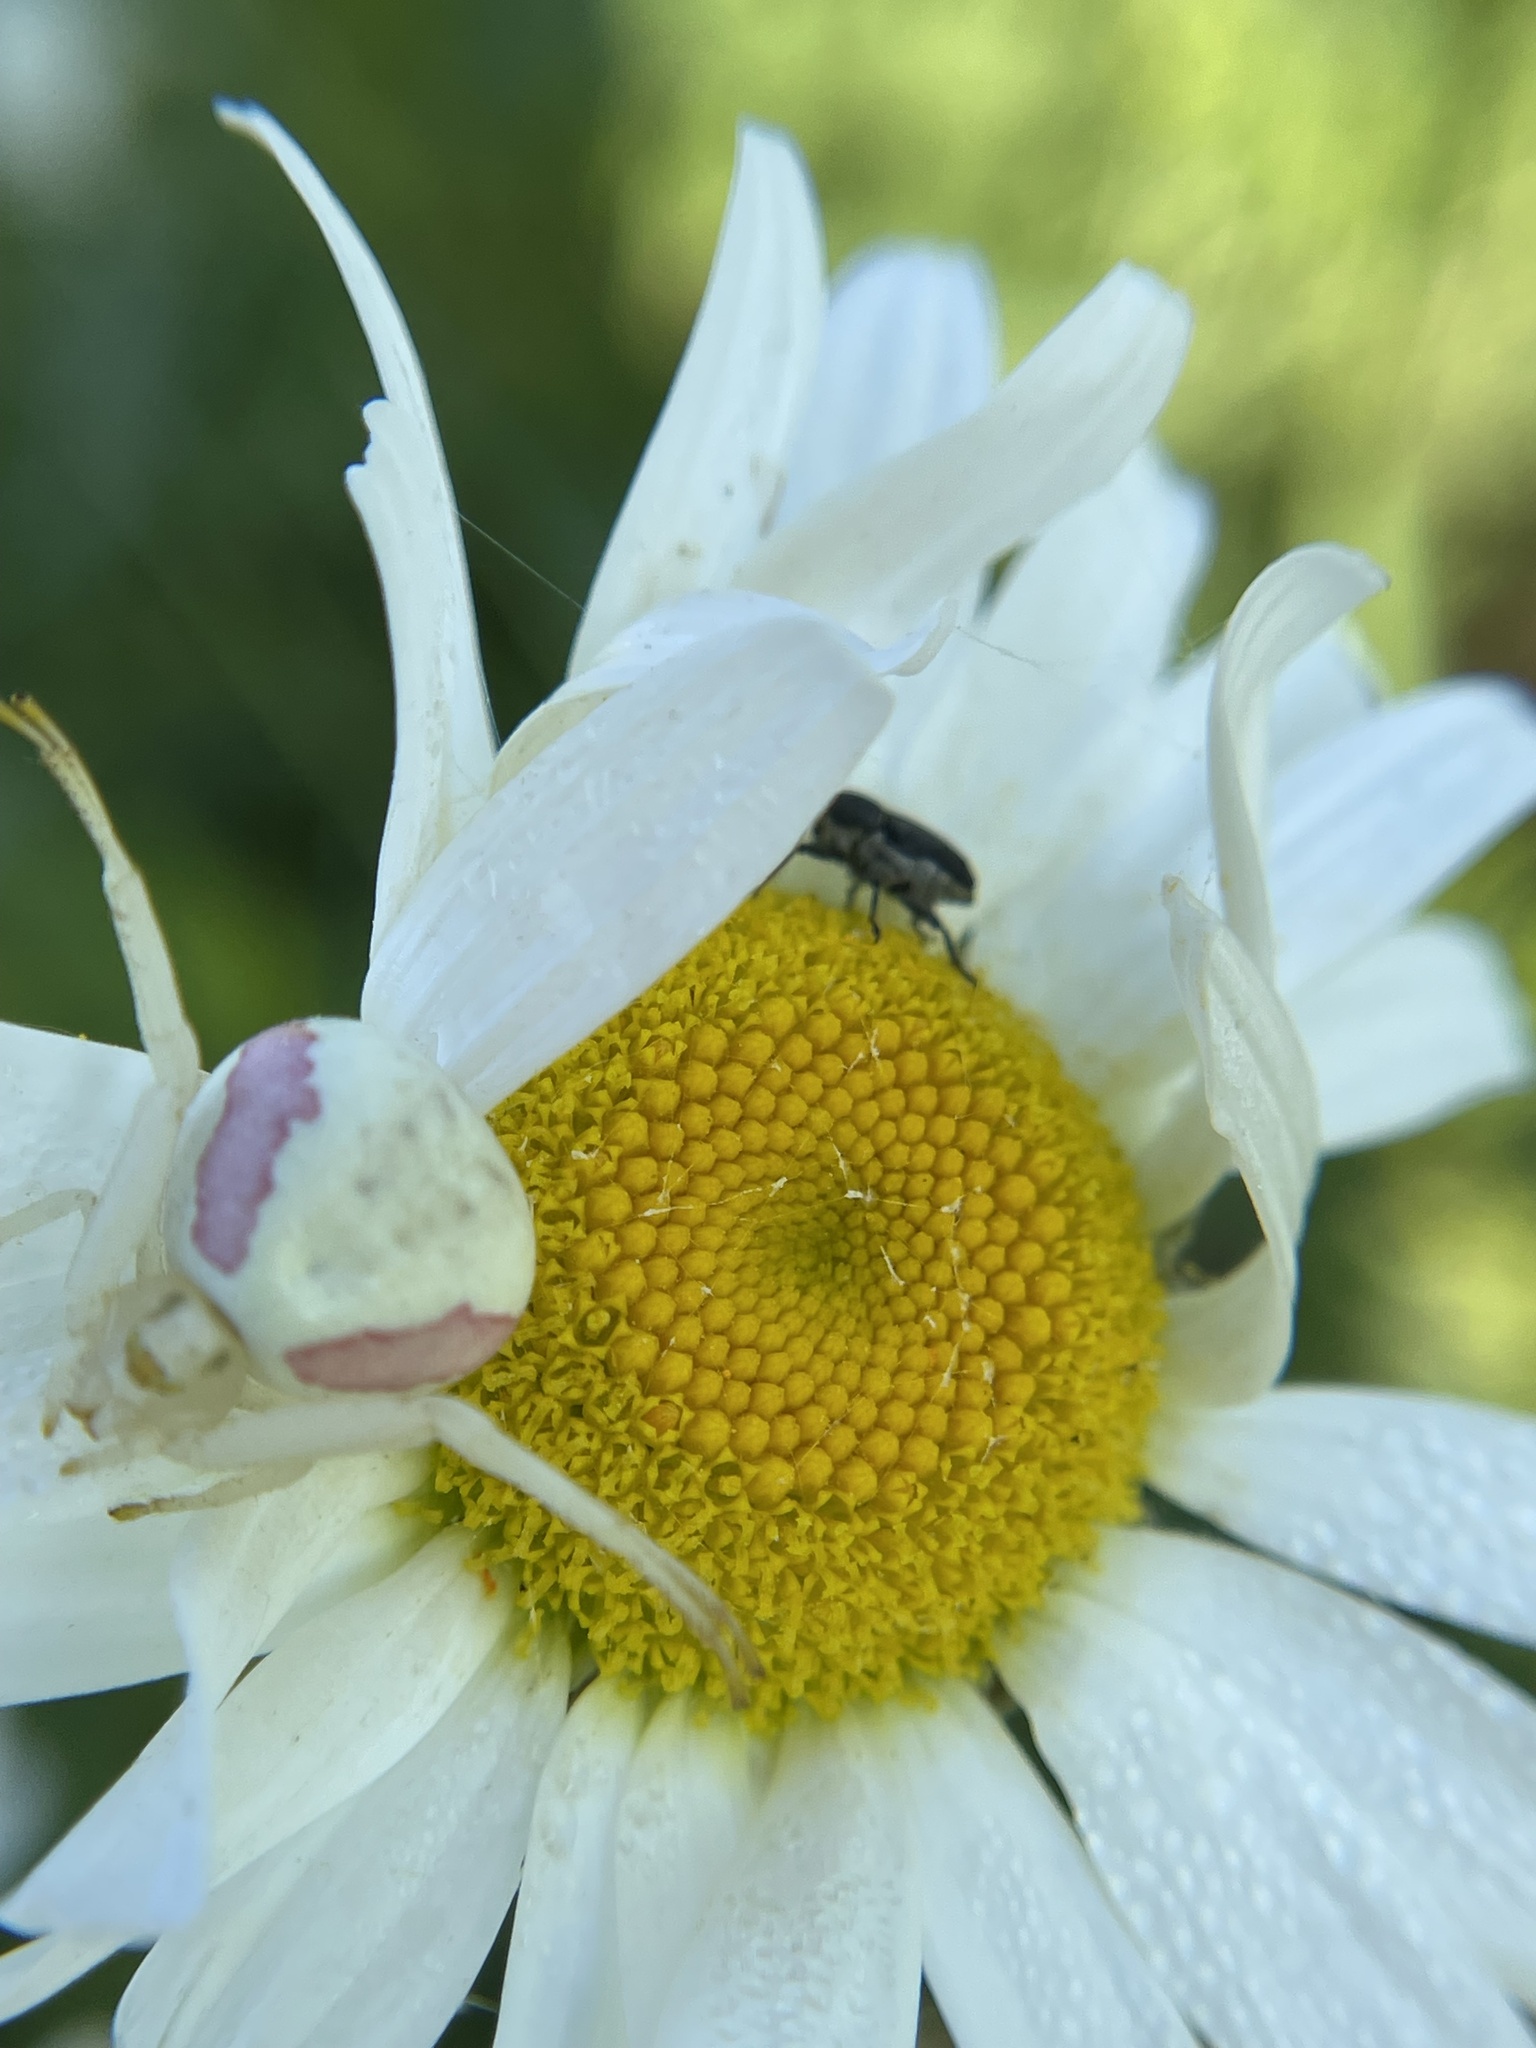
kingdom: Animalia
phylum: Arthropoda
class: Arachnida
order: Araneae
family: Thomisidae
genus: Misumena
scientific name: Misumena vatia
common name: Goldenrod crab spider
